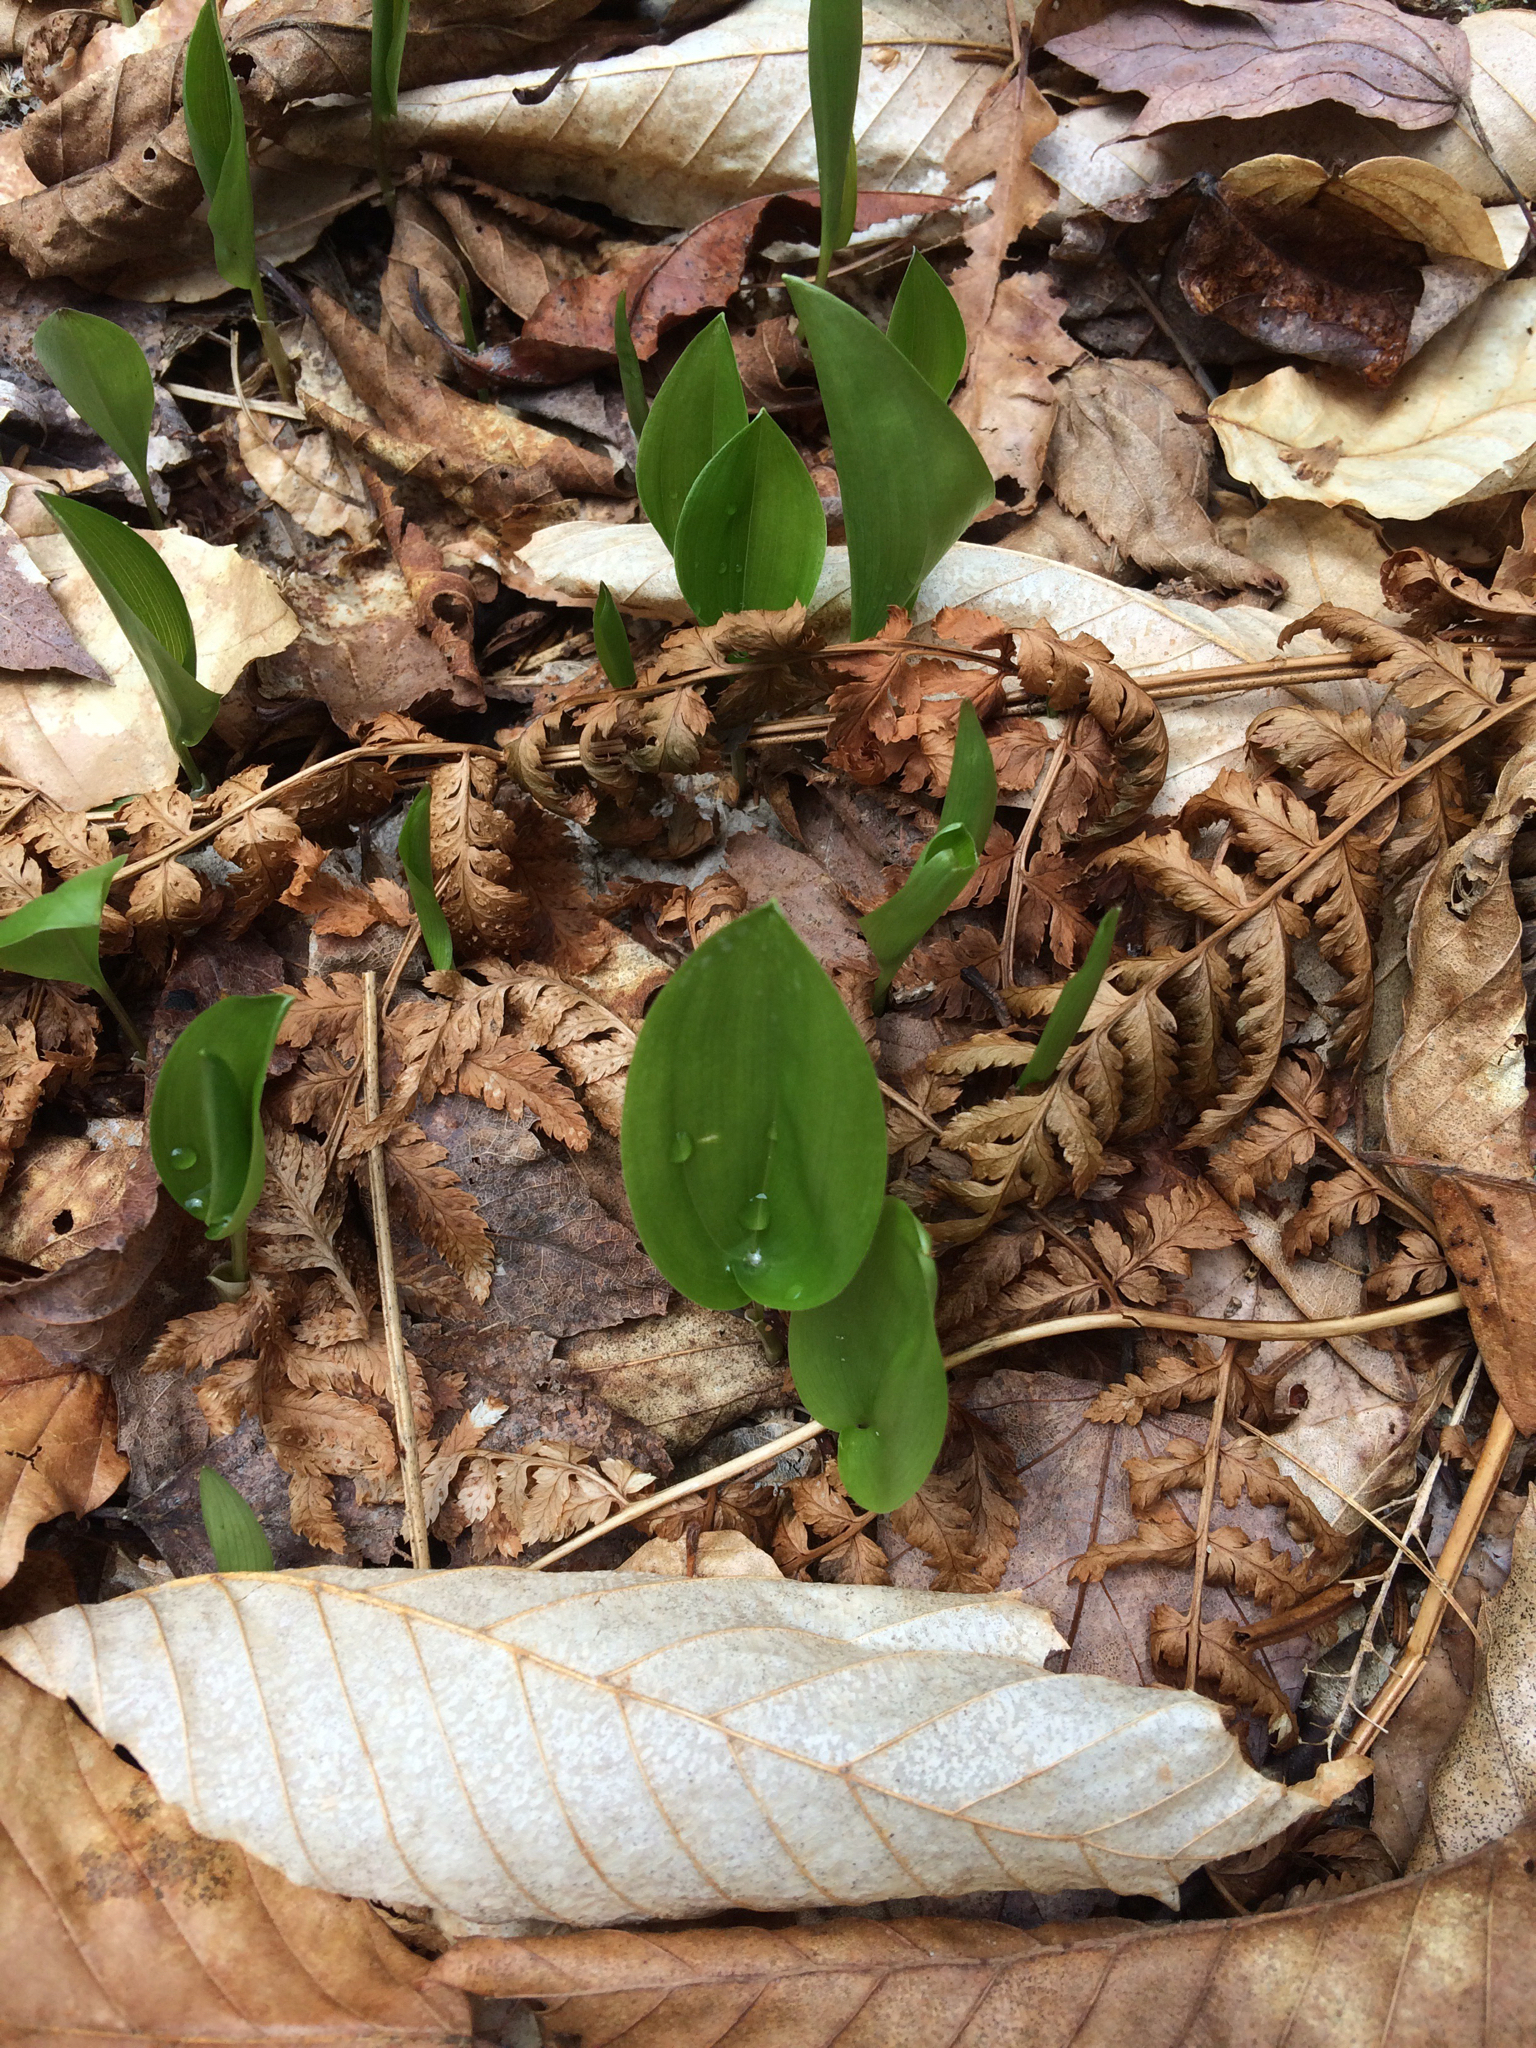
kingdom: Plantae
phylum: Tracheophyta
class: Liliopsida
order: Asparagales
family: Asparagaceae
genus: Maianthemum
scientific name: Maianthemum canadense
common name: False lily-of-the-valley
